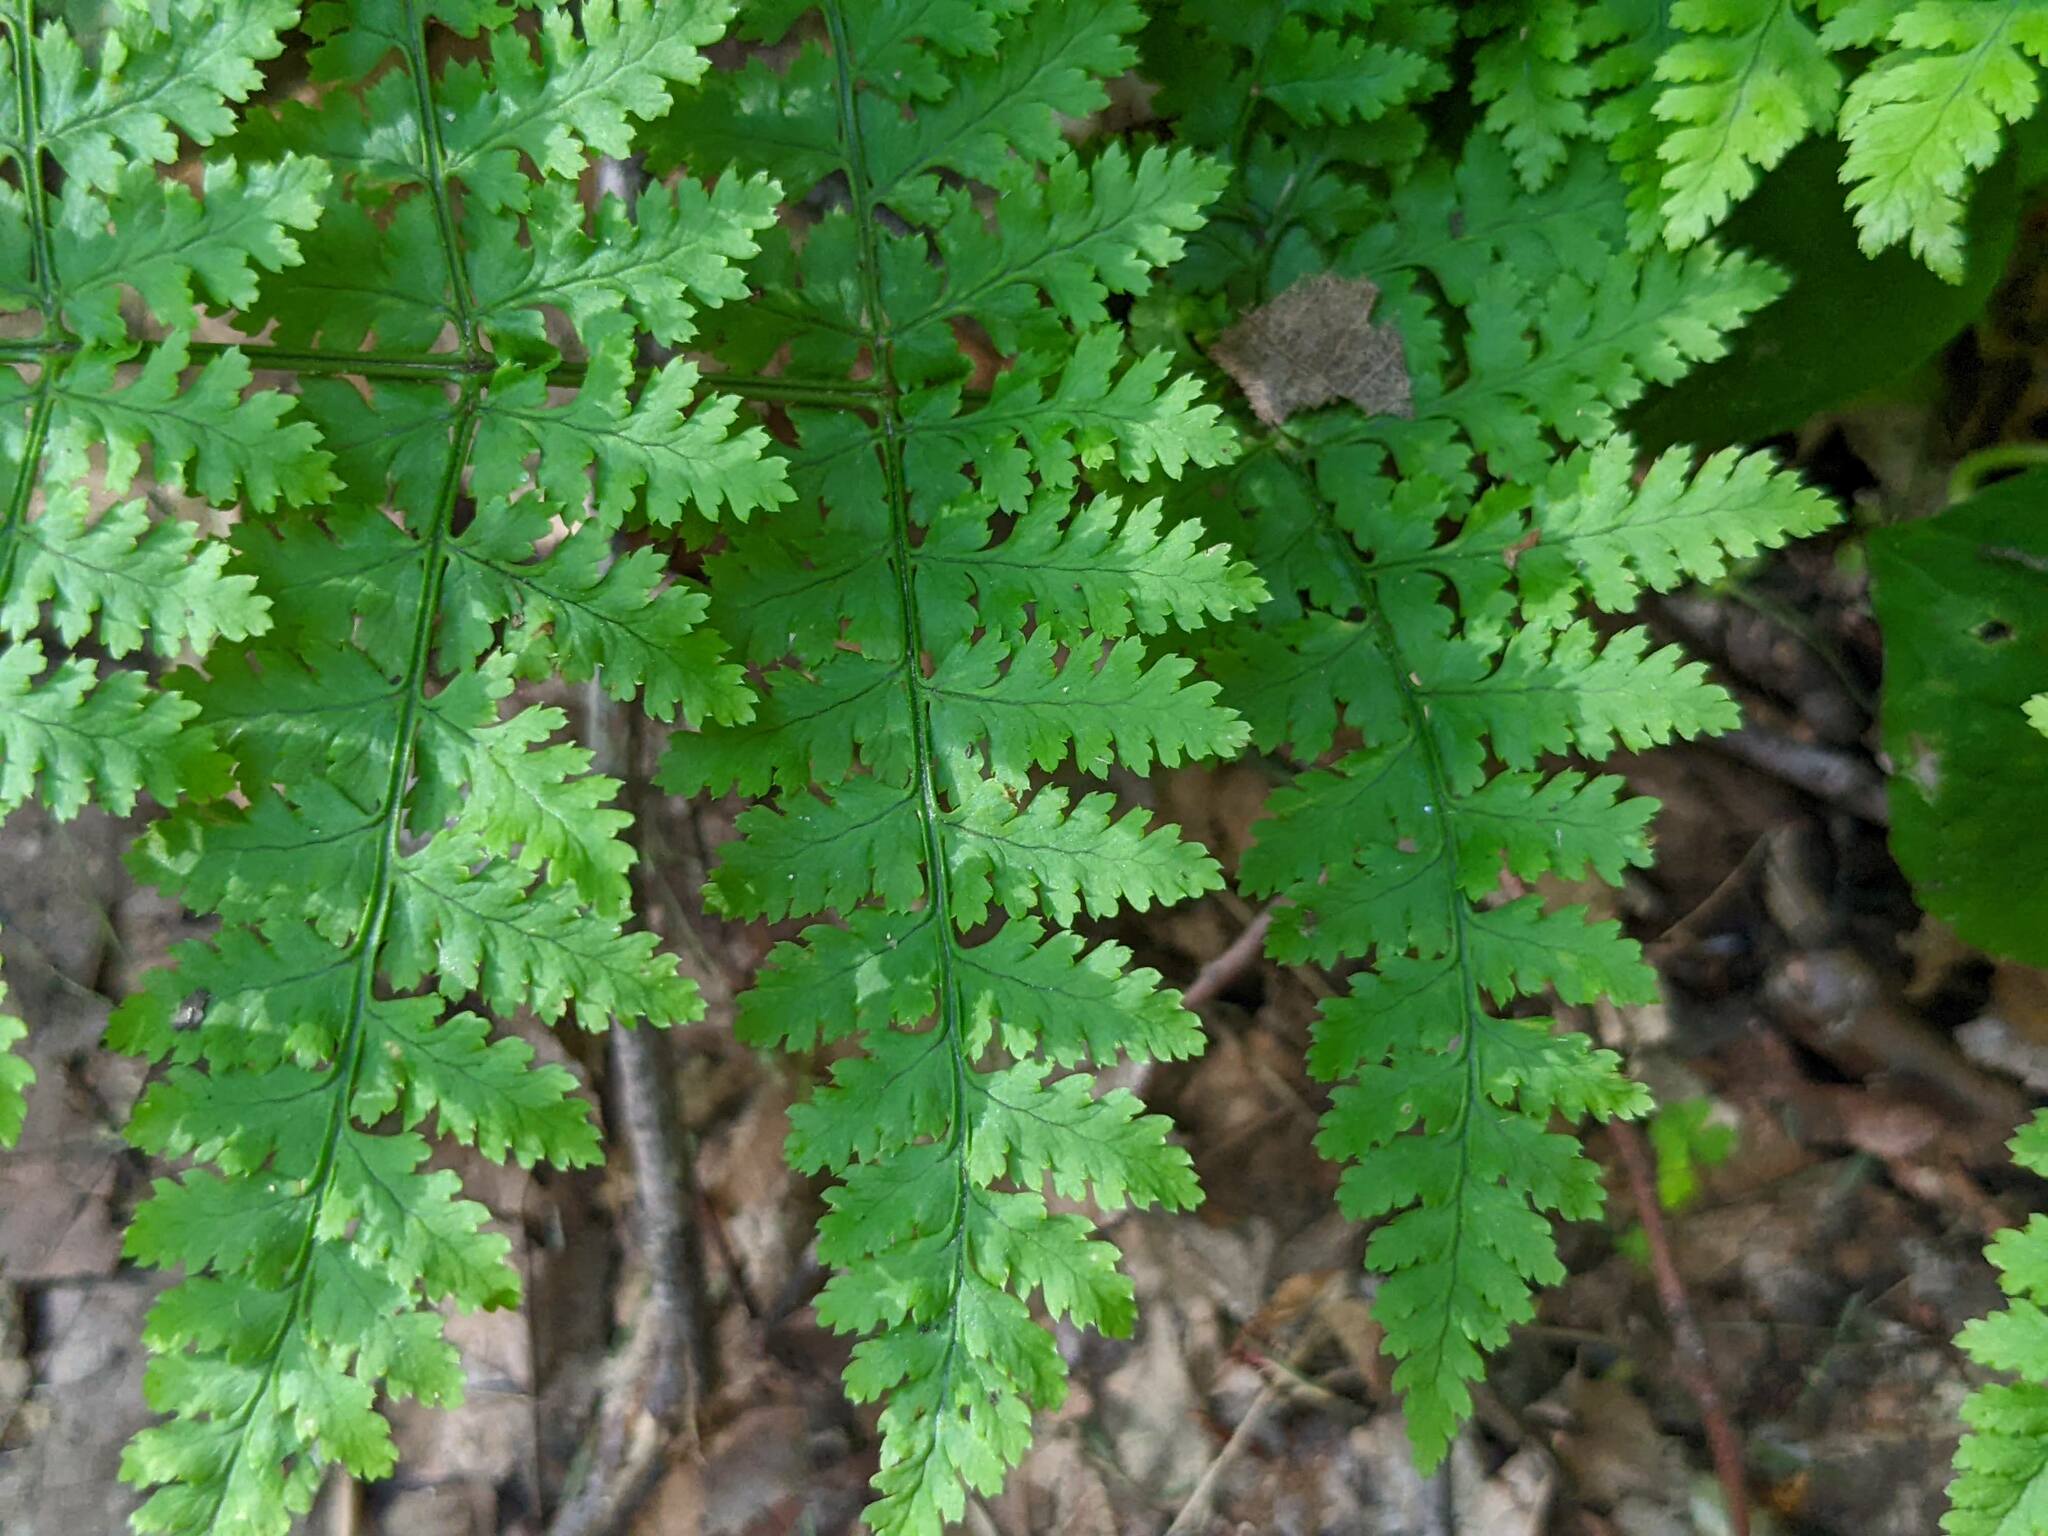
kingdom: Plantae
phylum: Tracheophyta
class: Polypodiopsida
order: Polypodiales
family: Dryopteridaceae
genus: Dryopteris
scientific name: Dryopteris intermedia
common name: Evergreen wood fern
